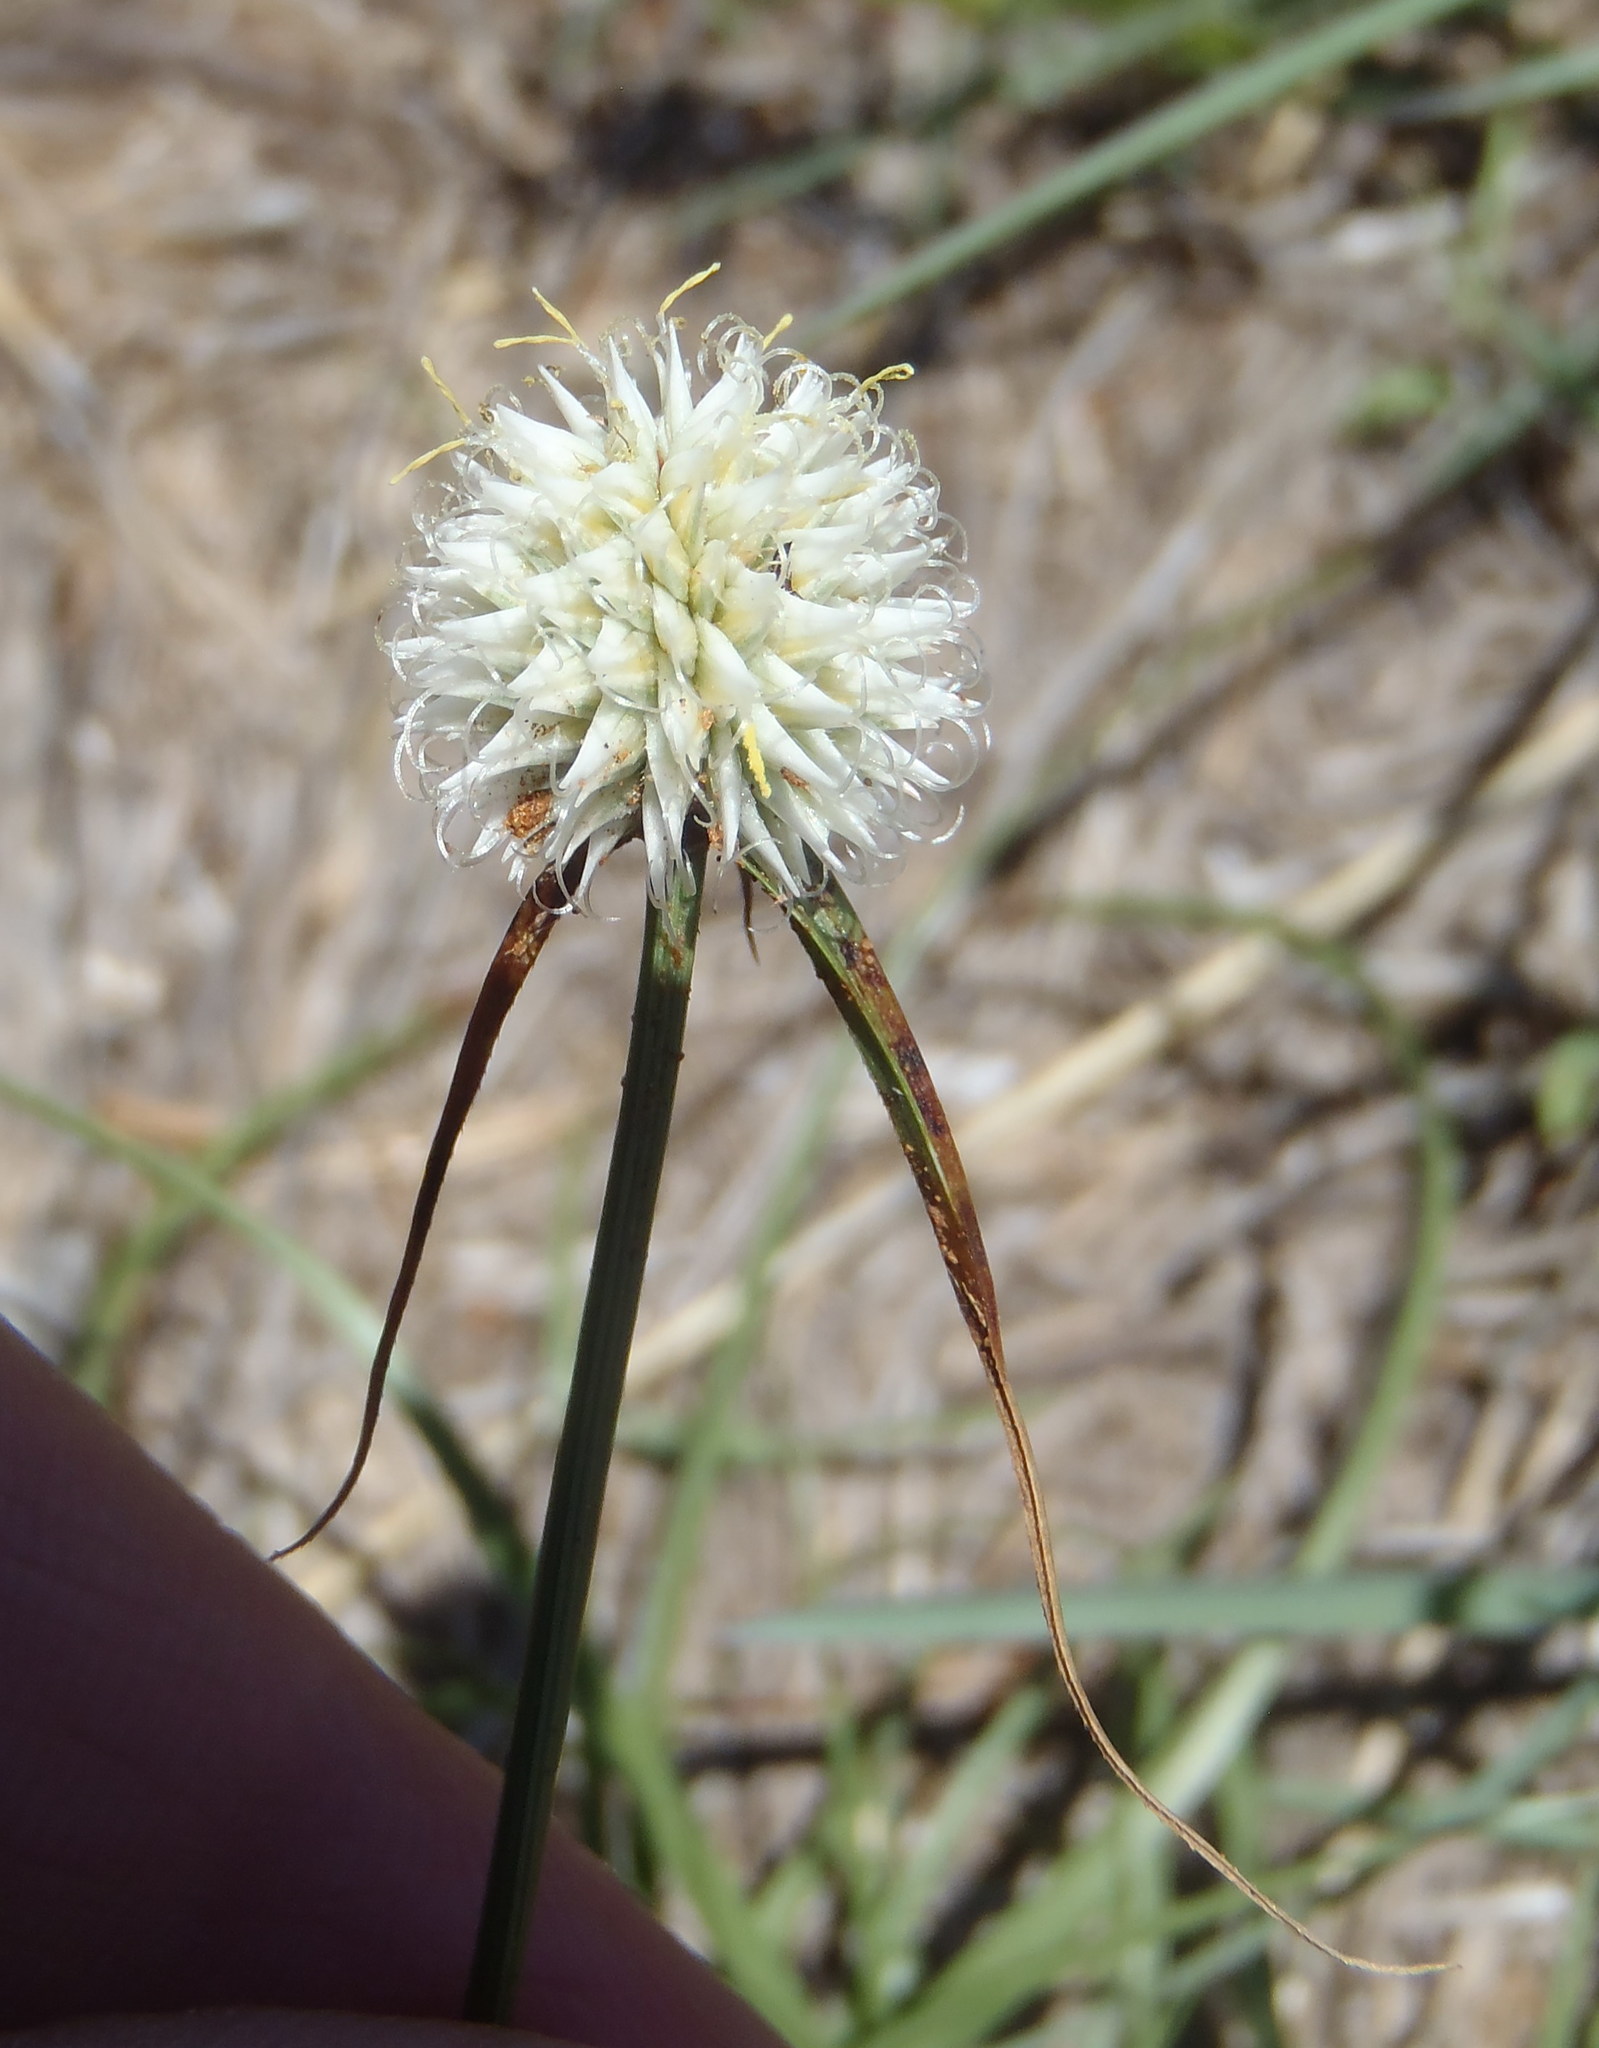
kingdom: Plantae
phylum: Tracheophyta
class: Liliopsida
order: Poales
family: Cyperaceae
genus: Cyperus
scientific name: Cyperus alatus
